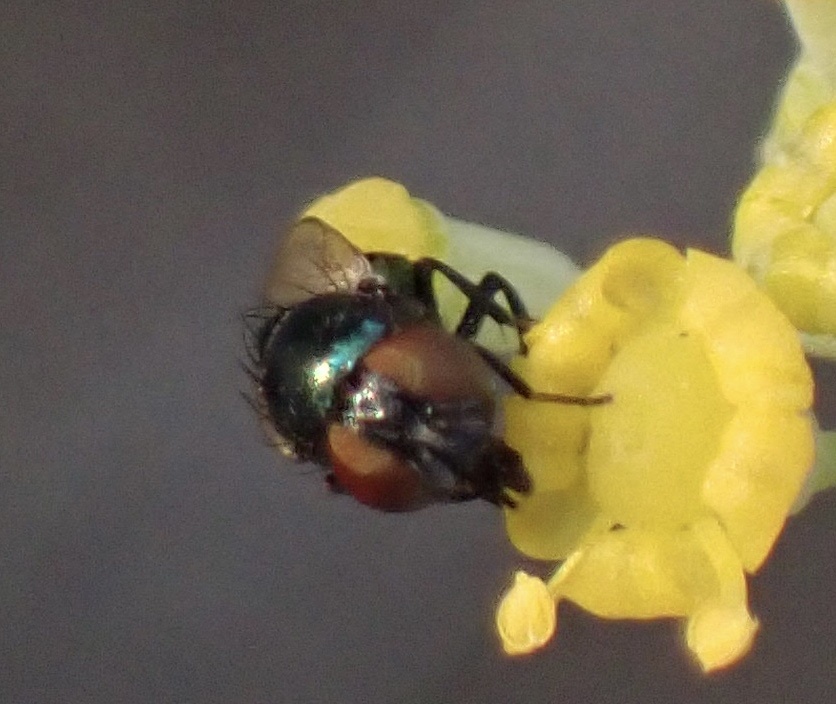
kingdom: Animalia
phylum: Arthropoda
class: Insecta
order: Diptera
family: Lonchaeidae
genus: Lamprolonchaea
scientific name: Lamprolonchaea smaragdi
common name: Lance fly
